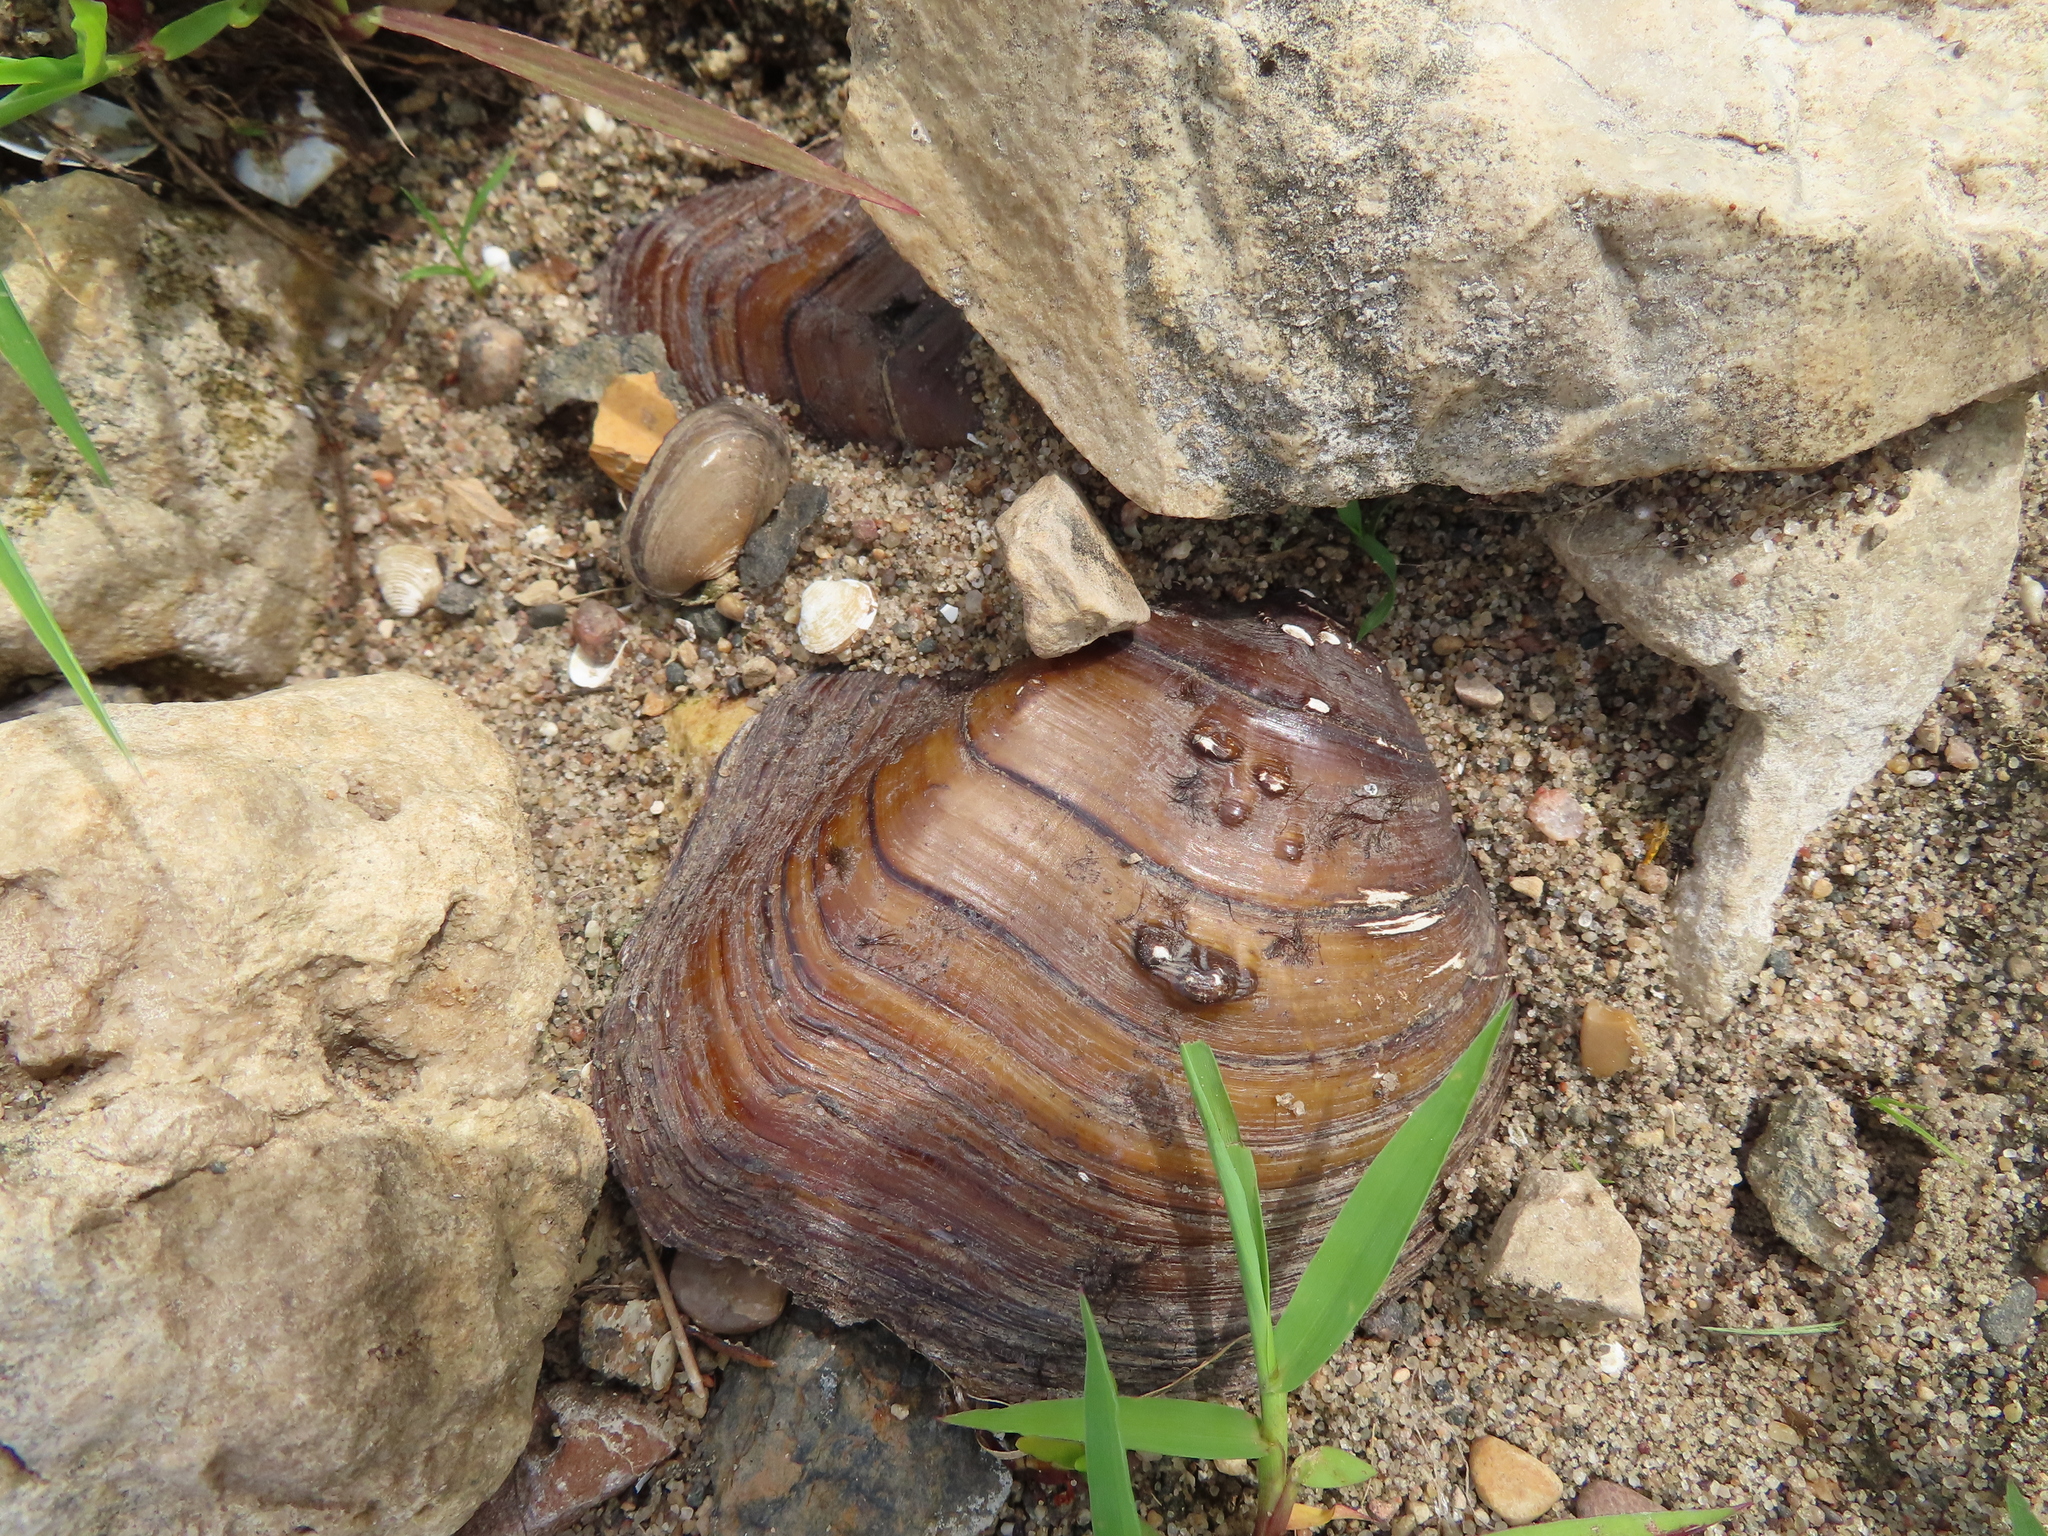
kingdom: Animalia
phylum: Mollusca
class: Bivalvia
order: Unionida
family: Unionidae
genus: Quadrula
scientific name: Quadrula quadrula
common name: Mapleleaf
